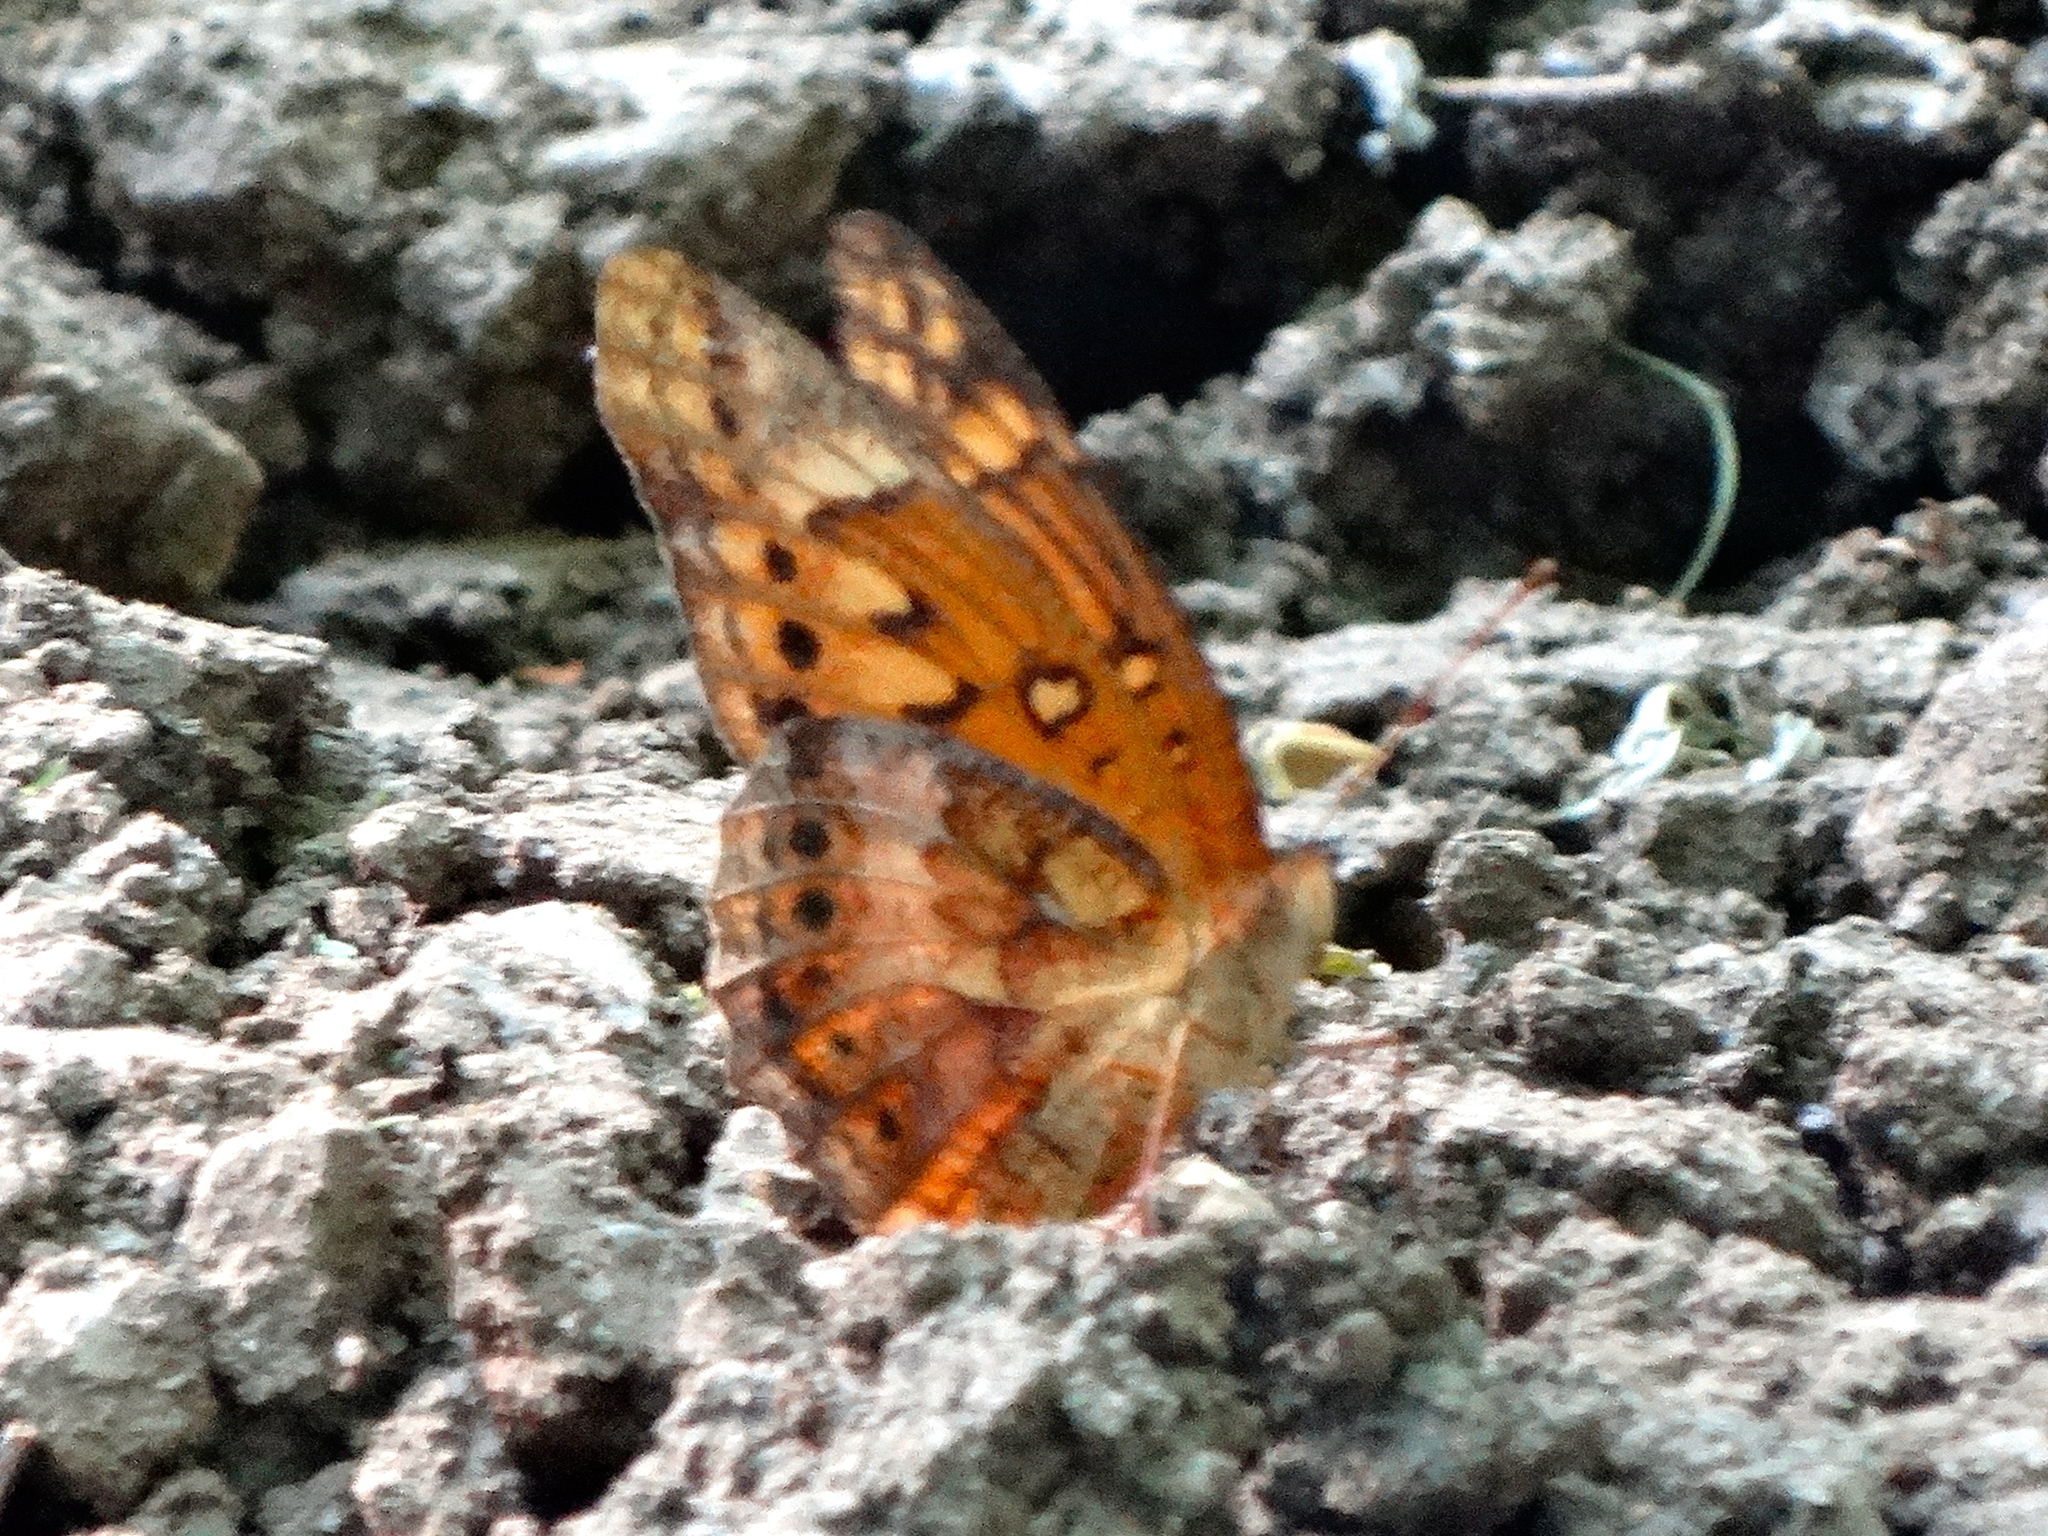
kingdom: Animalia
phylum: Arthropoda
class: Insecta
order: Lepidoptera
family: Nymphalidae
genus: Euptoieta
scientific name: Euptoieta claudia
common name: Variegated fritillary
